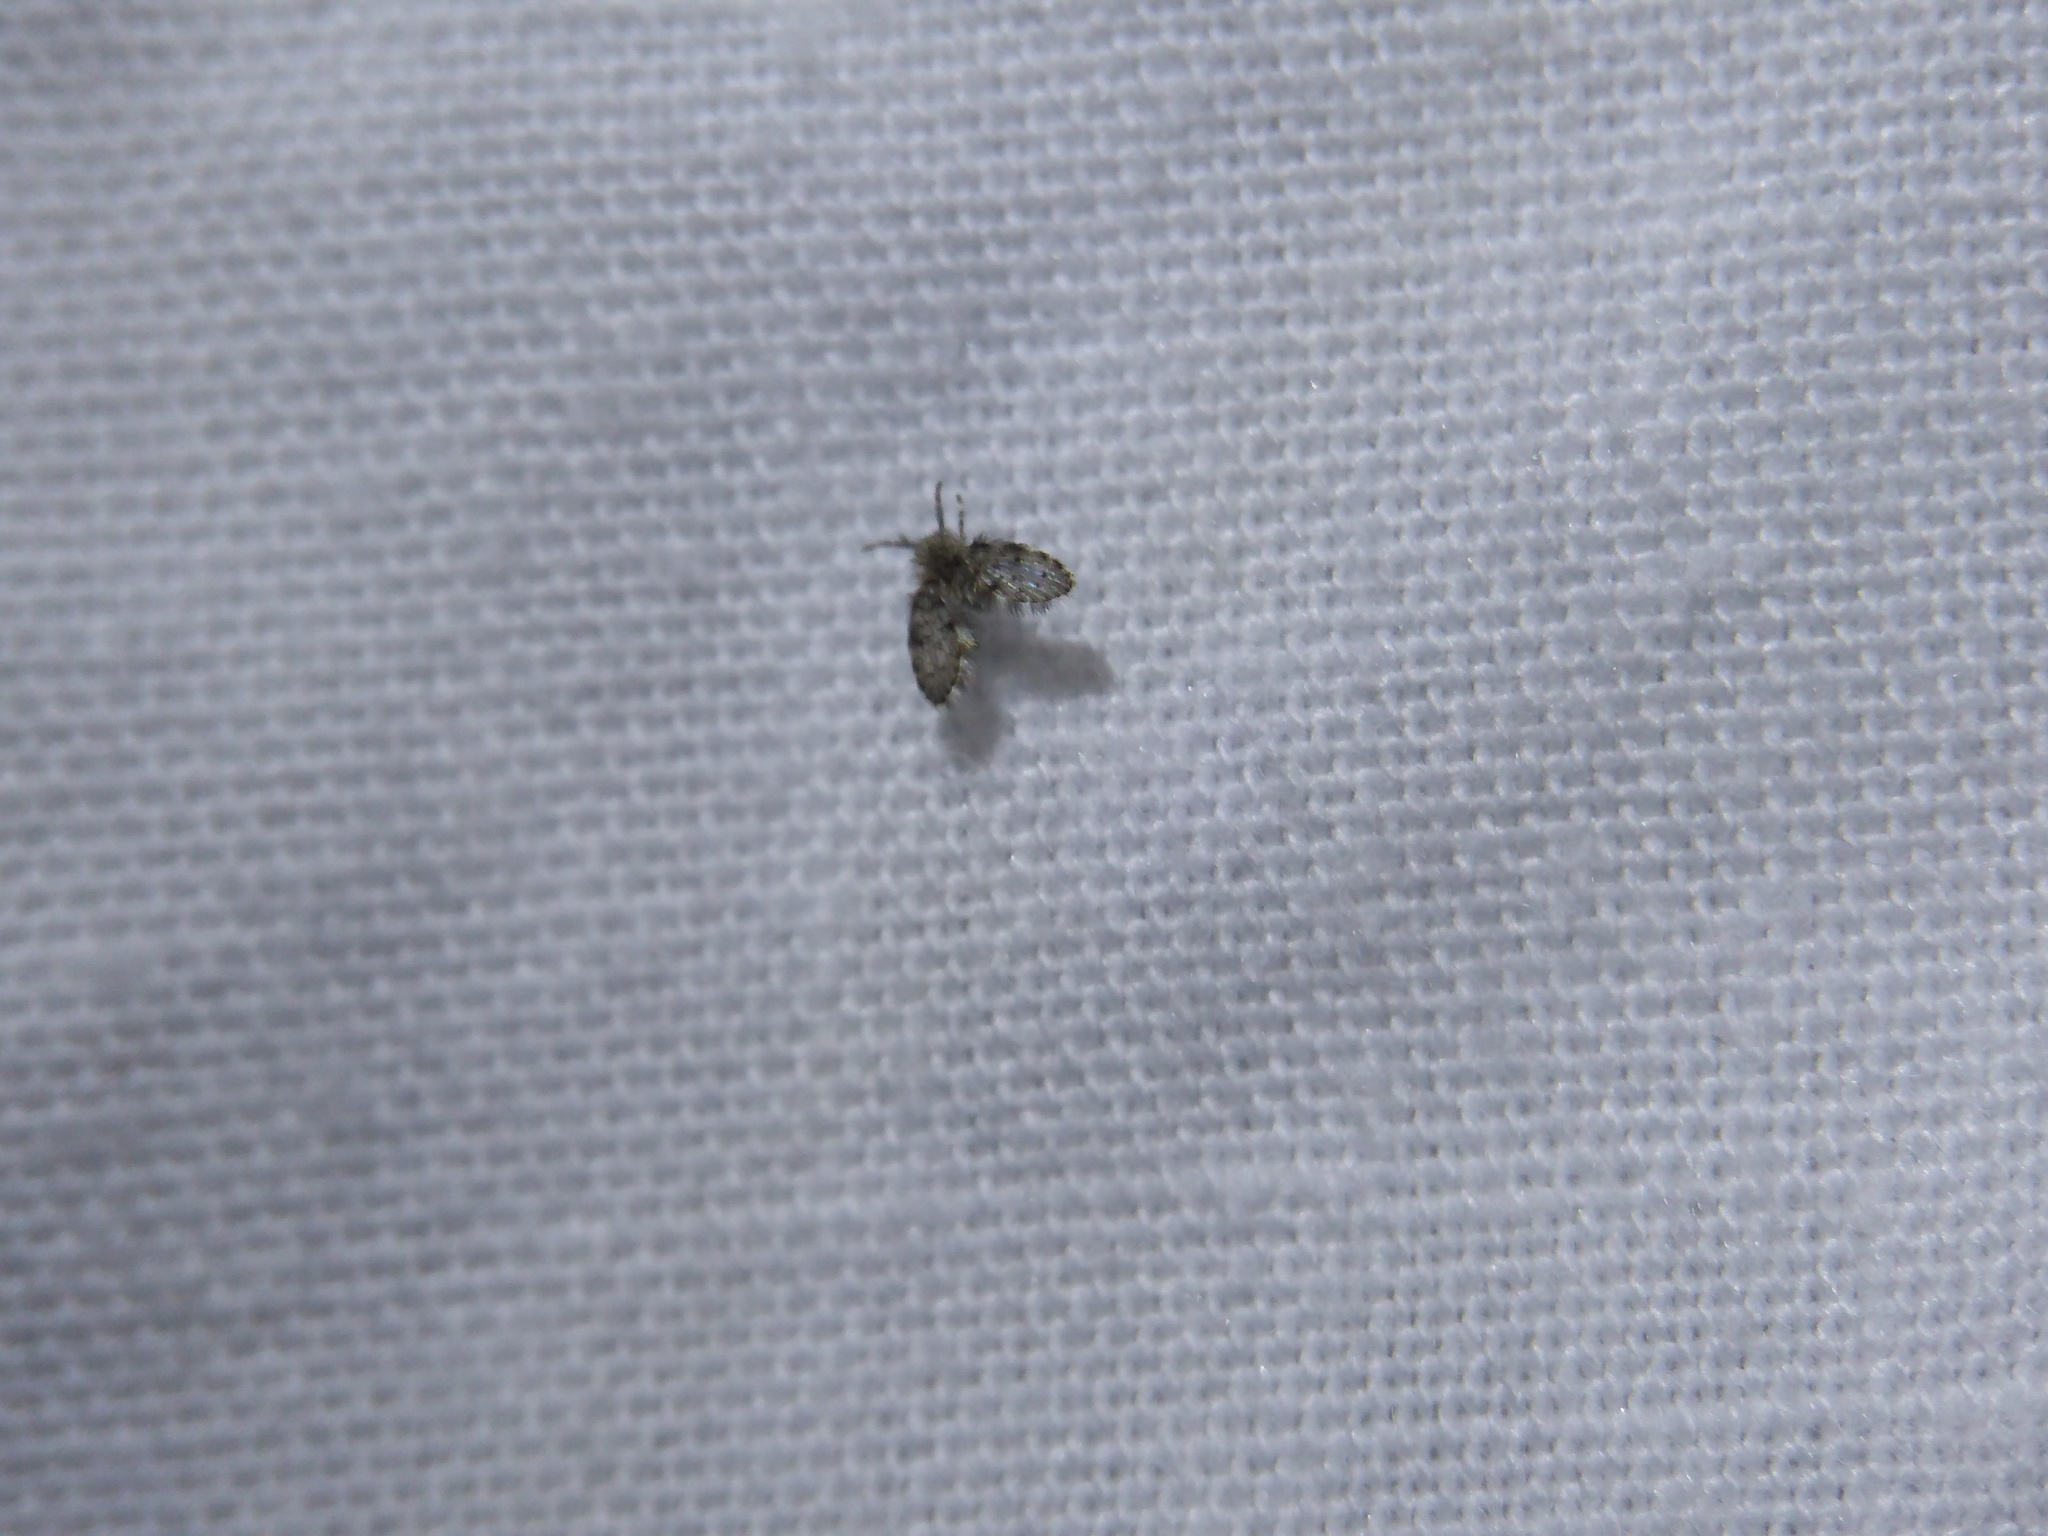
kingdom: Animalia
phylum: Arthropoda
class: Insecta
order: Diptera
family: Psychodidae
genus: Clogmia
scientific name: Clogmia albipunctatus
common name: White-spotted moth fly
